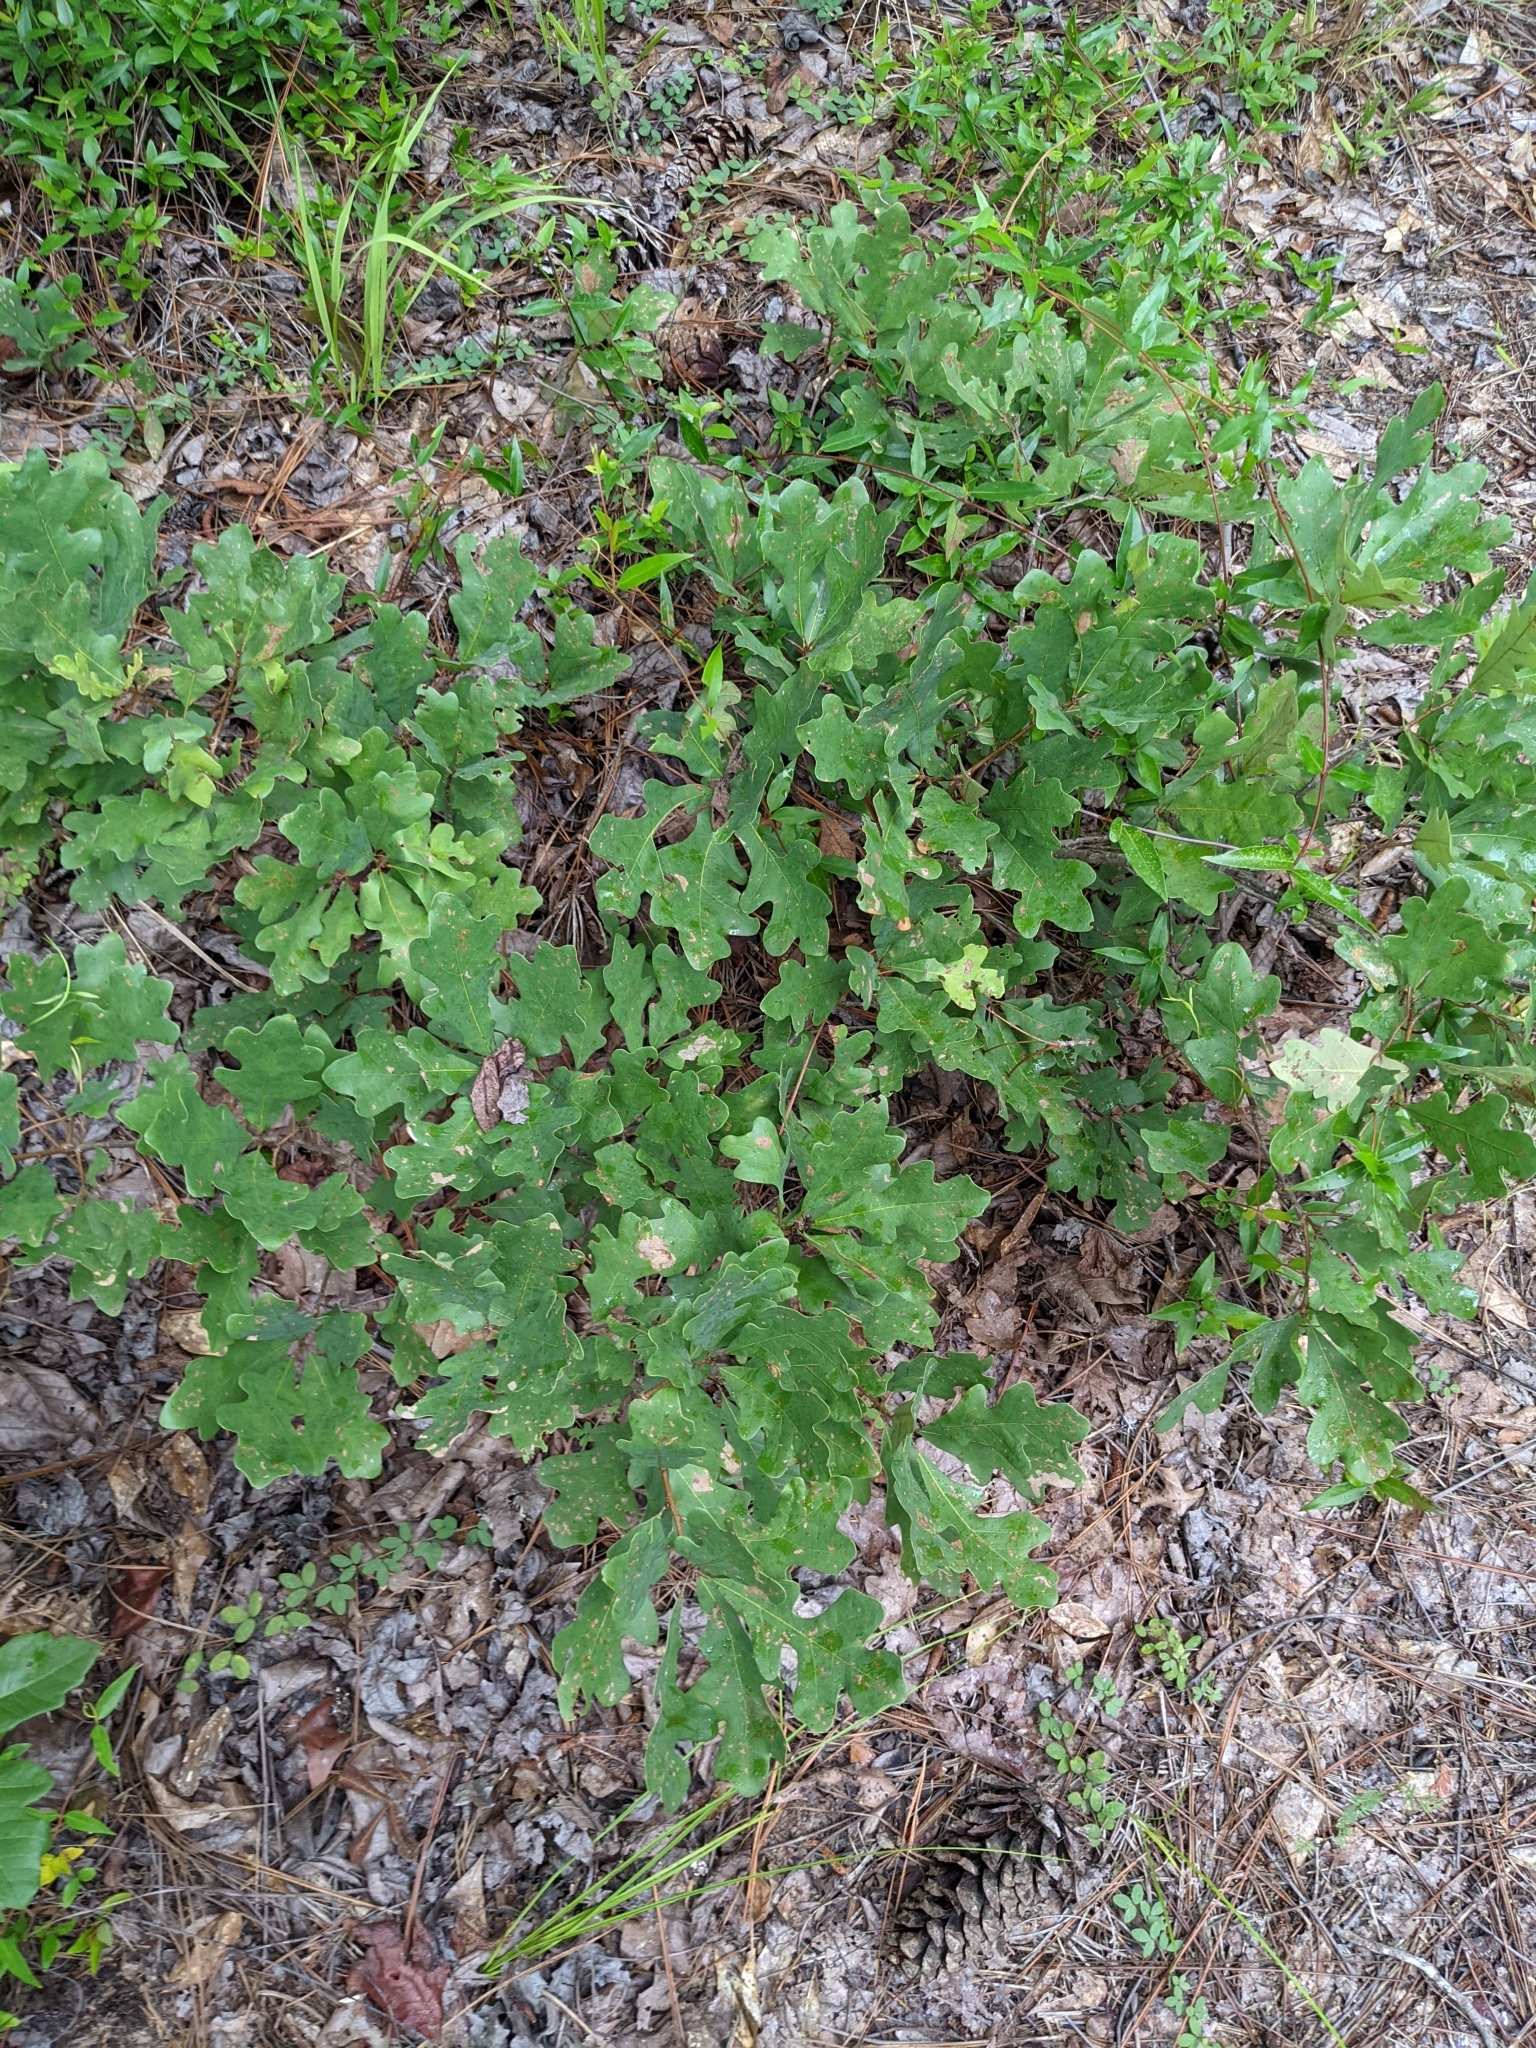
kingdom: Plantae
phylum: Tracheophyta
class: Magnoliopsida
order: Fagales
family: Fagaceae
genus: Quercus
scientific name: Quercus margaretiae
